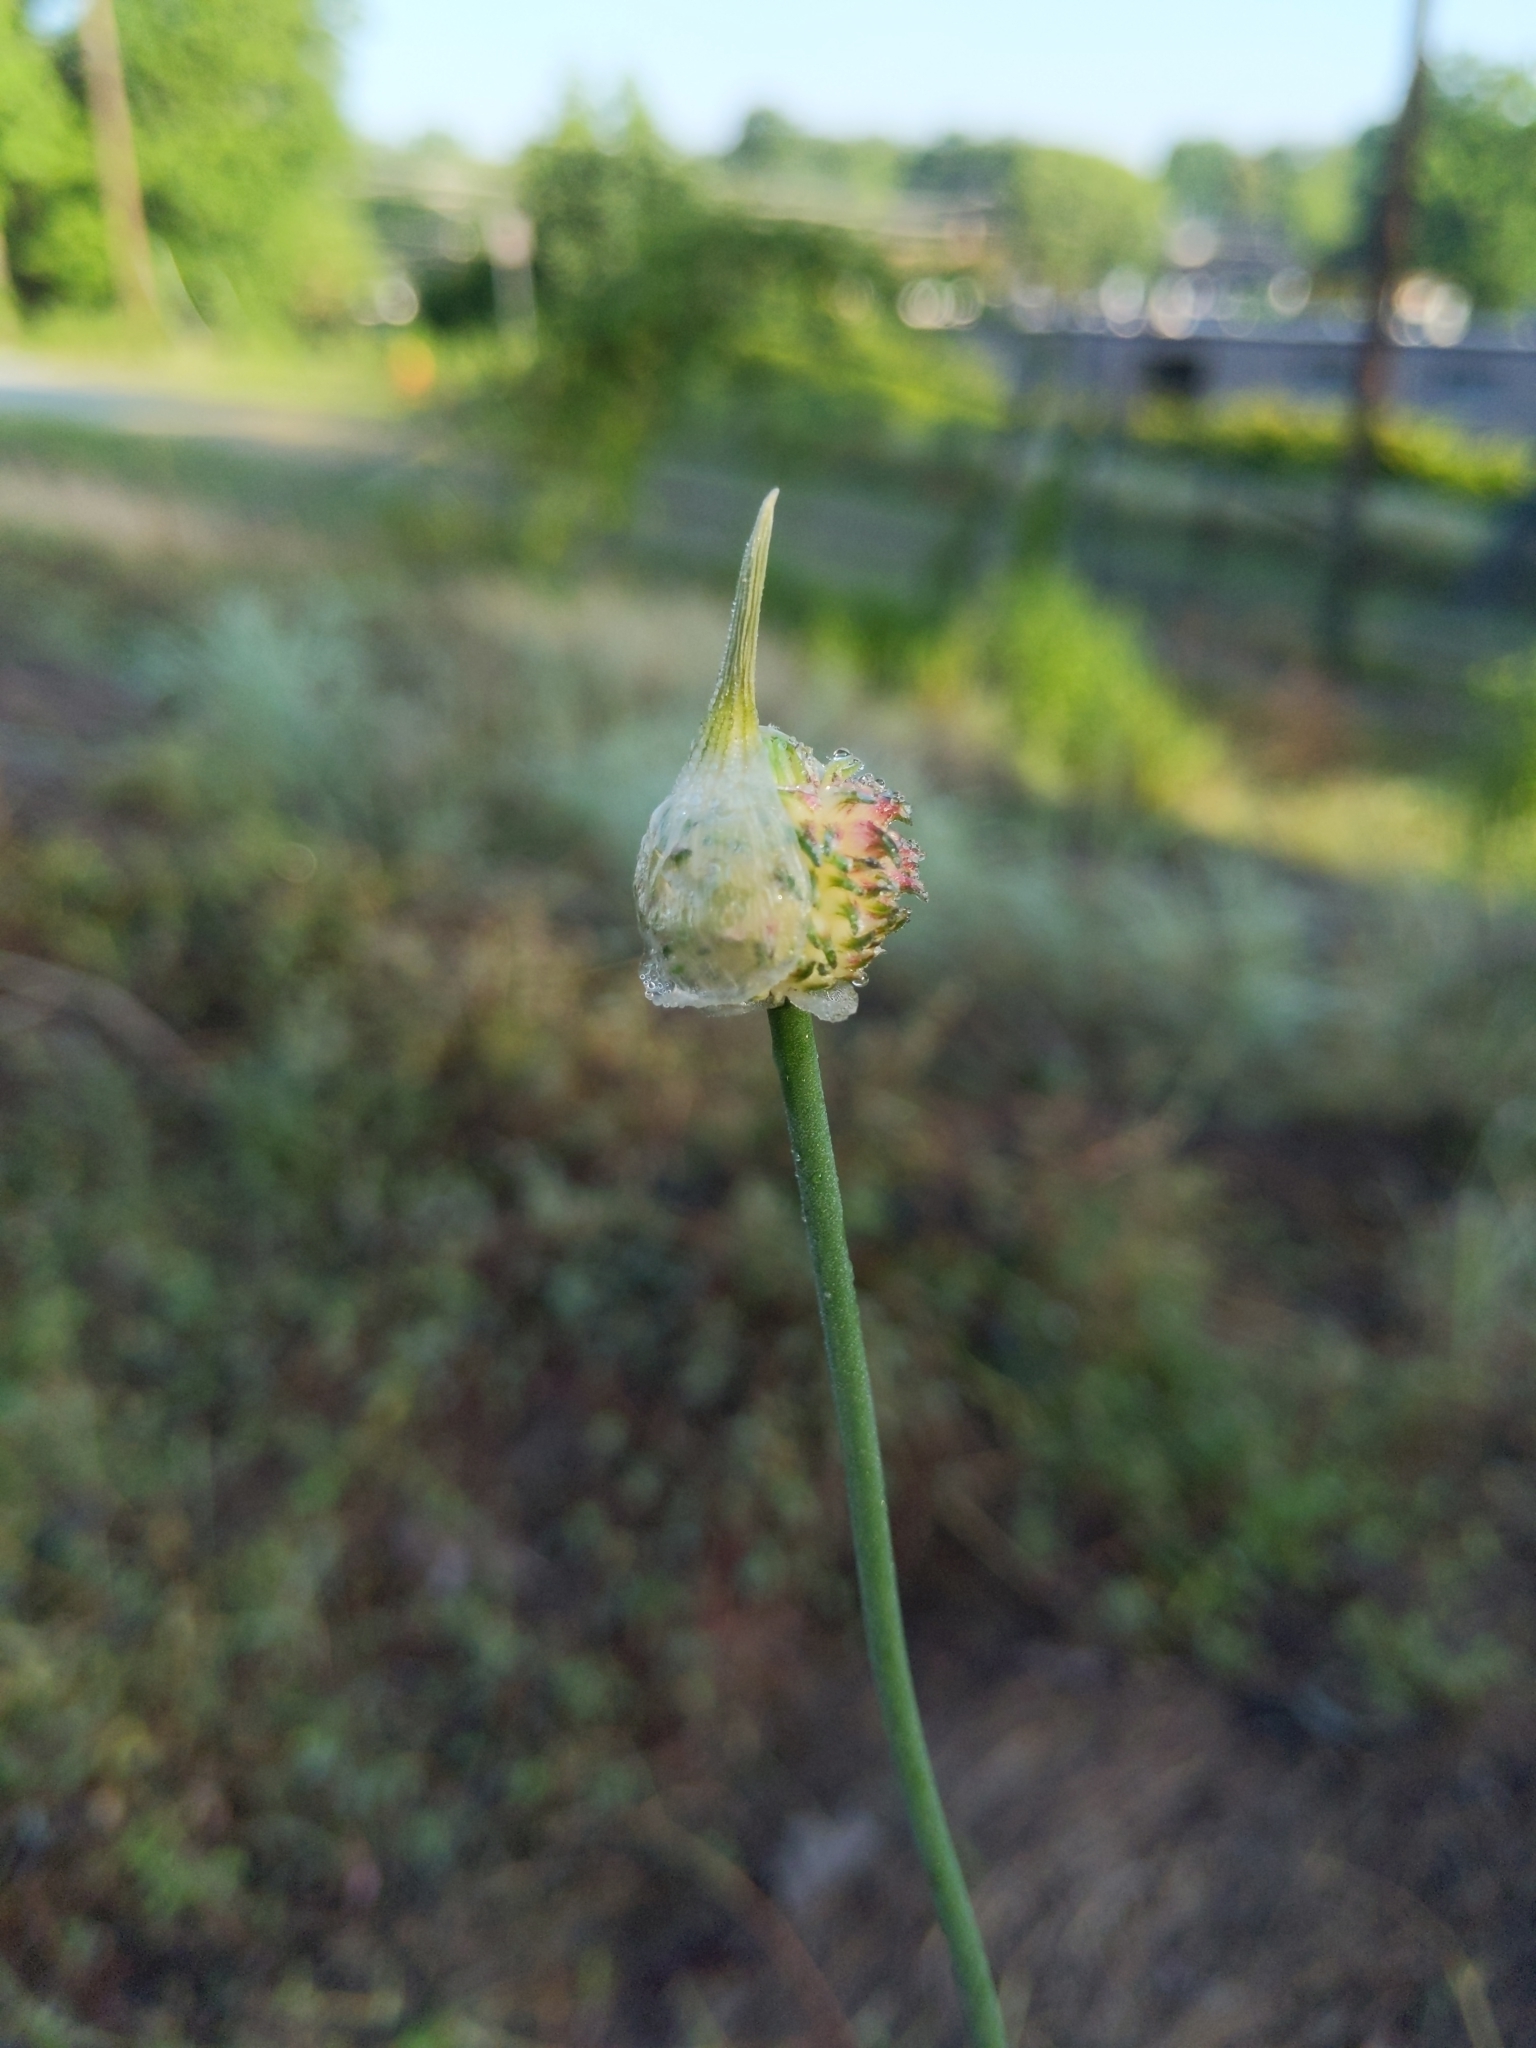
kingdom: Plantae
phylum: Tracheophyta
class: Liliopsida
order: Asparagales
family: Amaryllidaceae
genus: Allium
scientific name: Allium vineale
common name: Crow garlic
